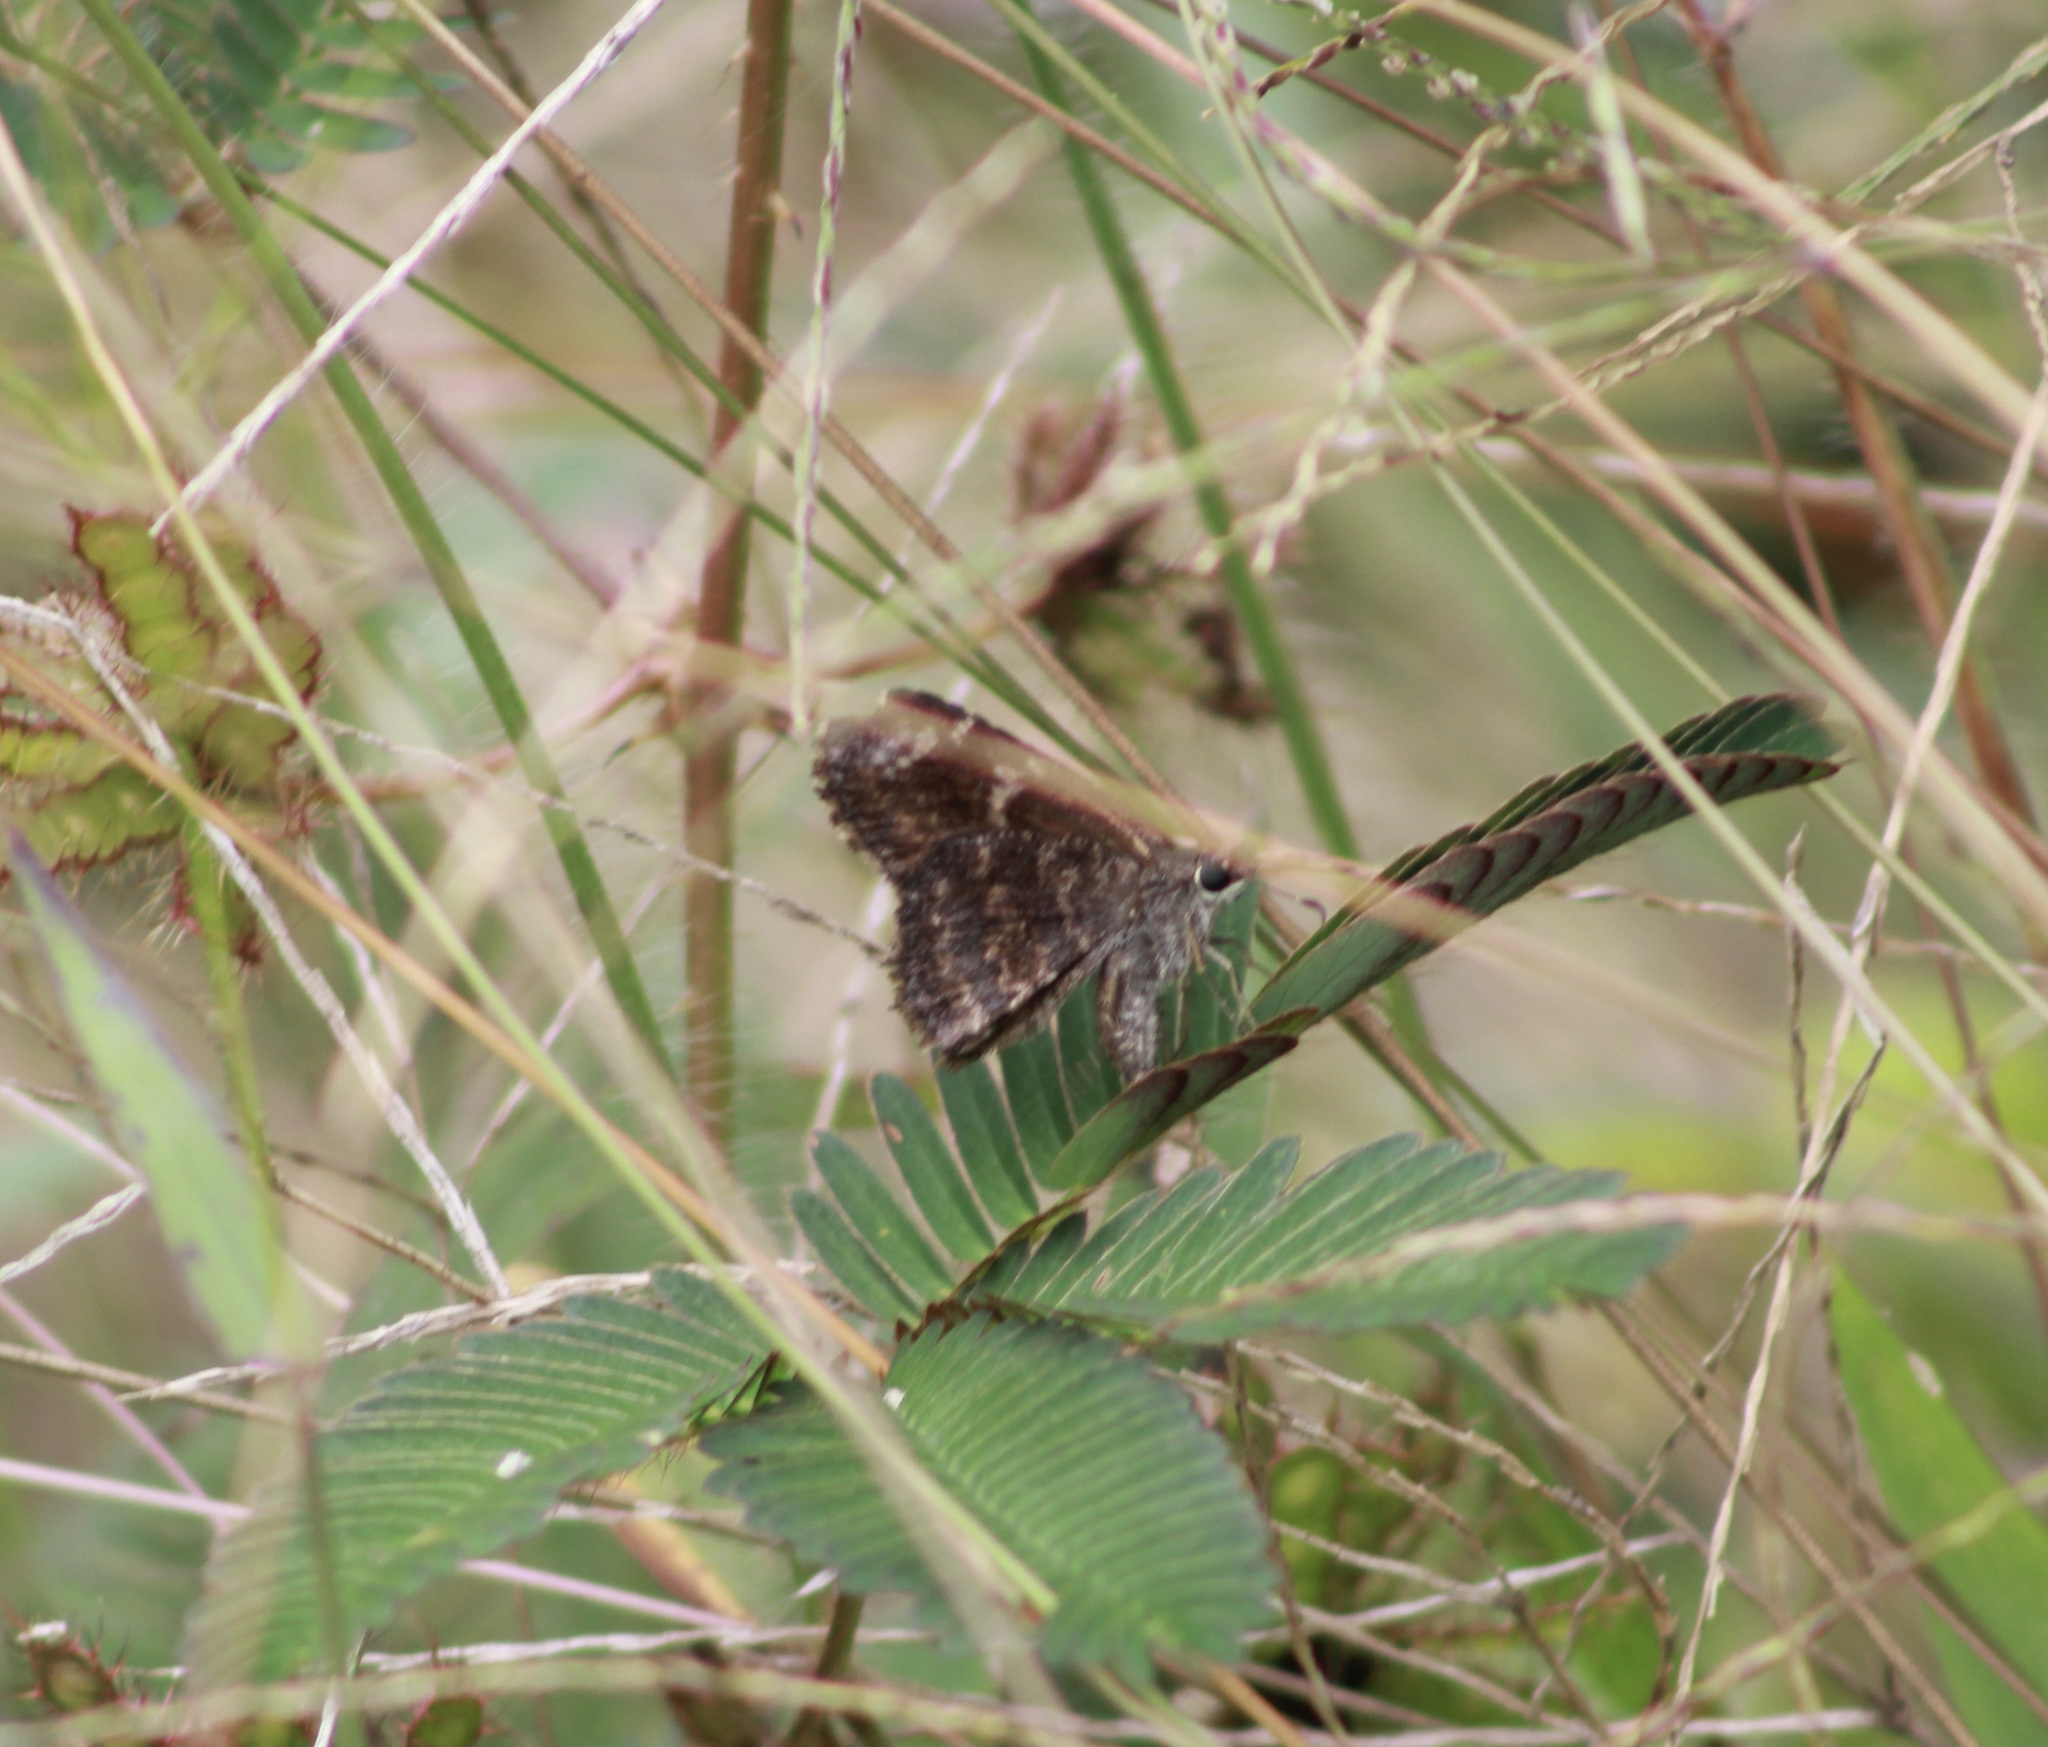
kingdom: Animalia
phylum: Arthropoda
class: Insecta
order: Lepidoptera
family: Hesperiidae
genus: Caicella
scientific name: Caicella calchas
